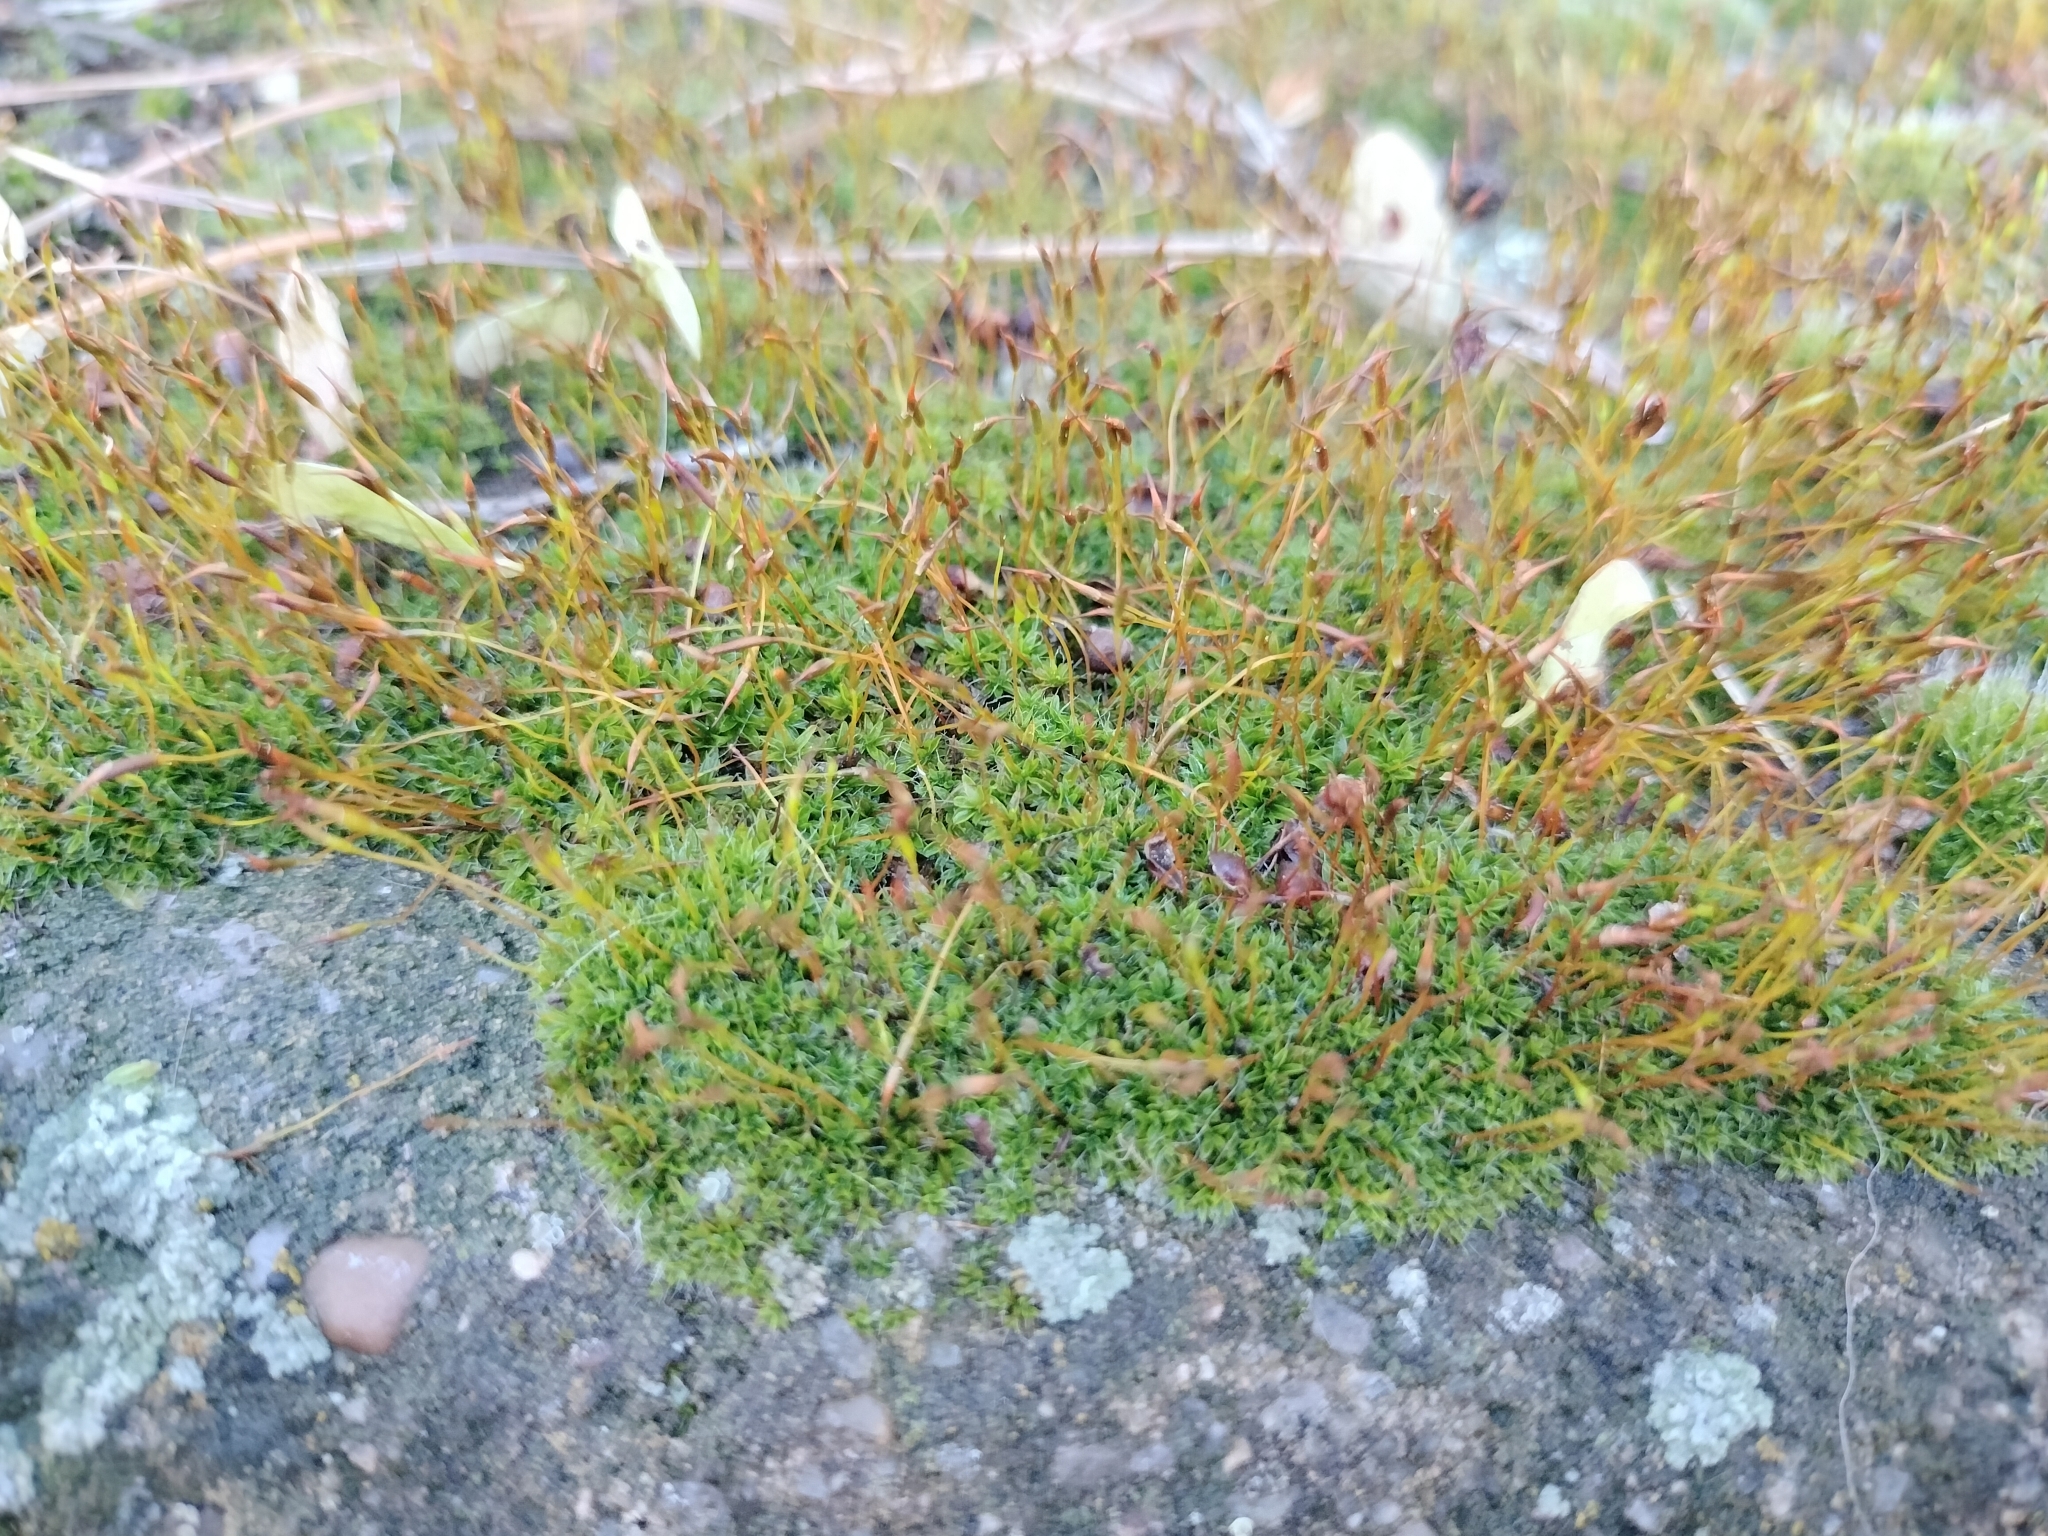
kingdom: Plantae
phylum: Bryophyta
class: Bryopsida
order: Pottiales
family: Pottiaceae
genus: Tortula
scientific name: Tortula muralis
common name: Wall screw-moss
